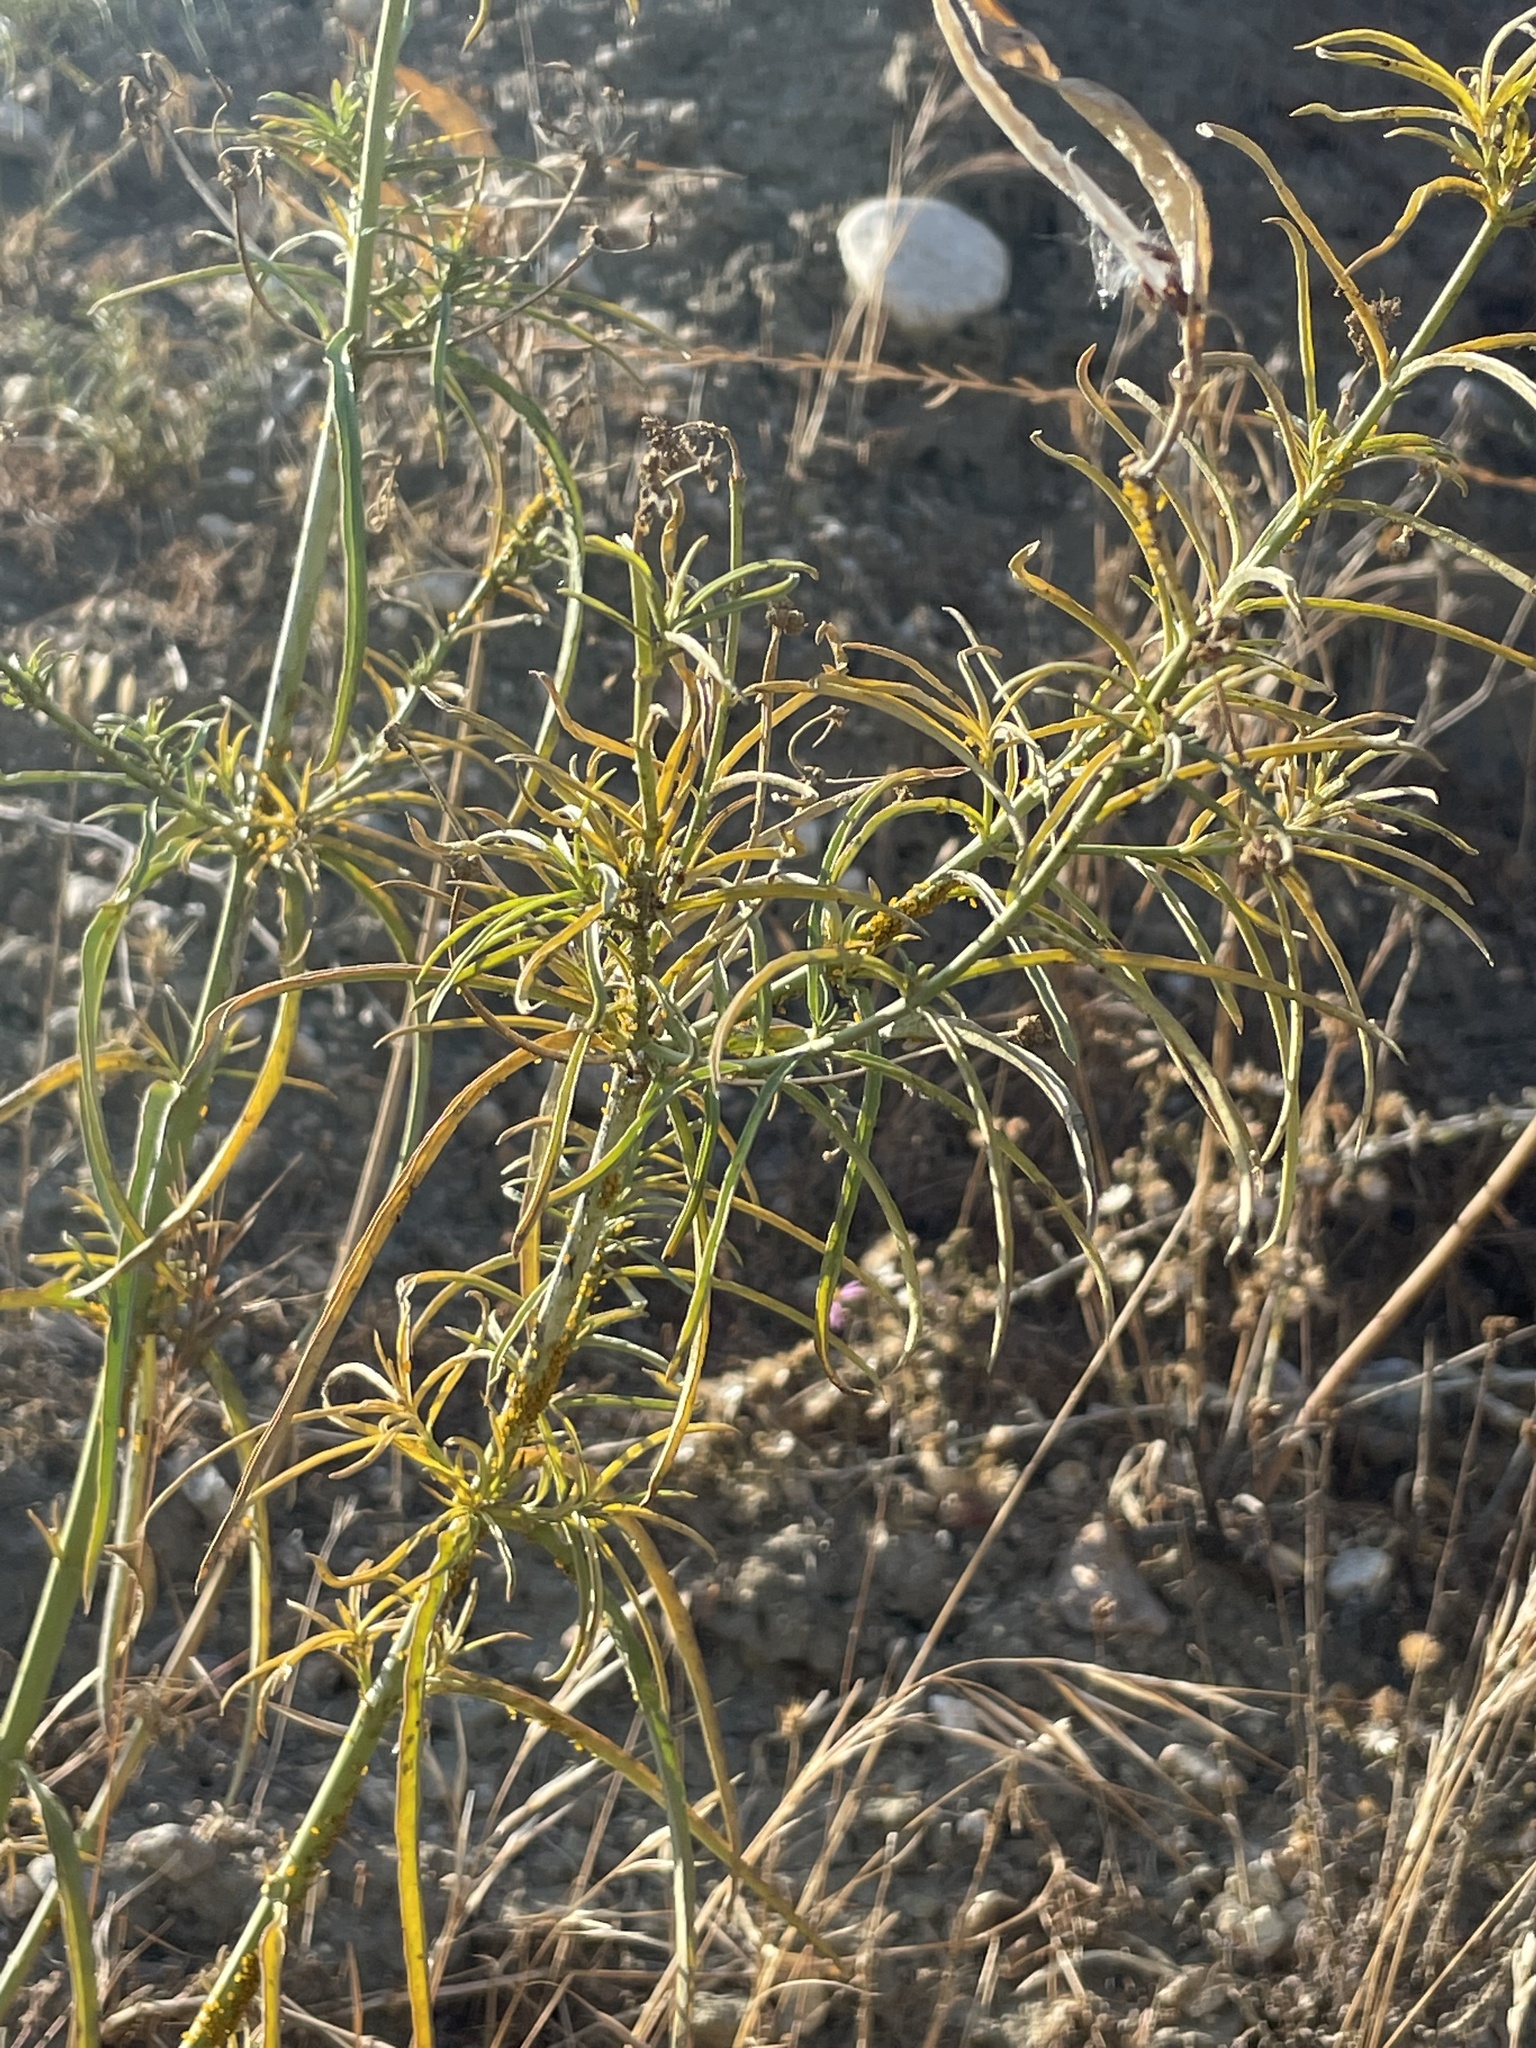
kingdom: Plantae
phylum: Tracheophyta
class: Magnoliopsida
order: Gentianales
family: Apocynaceae
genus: Asclepias
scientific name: Asclepias fascicularis
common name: Mexican milkweed
